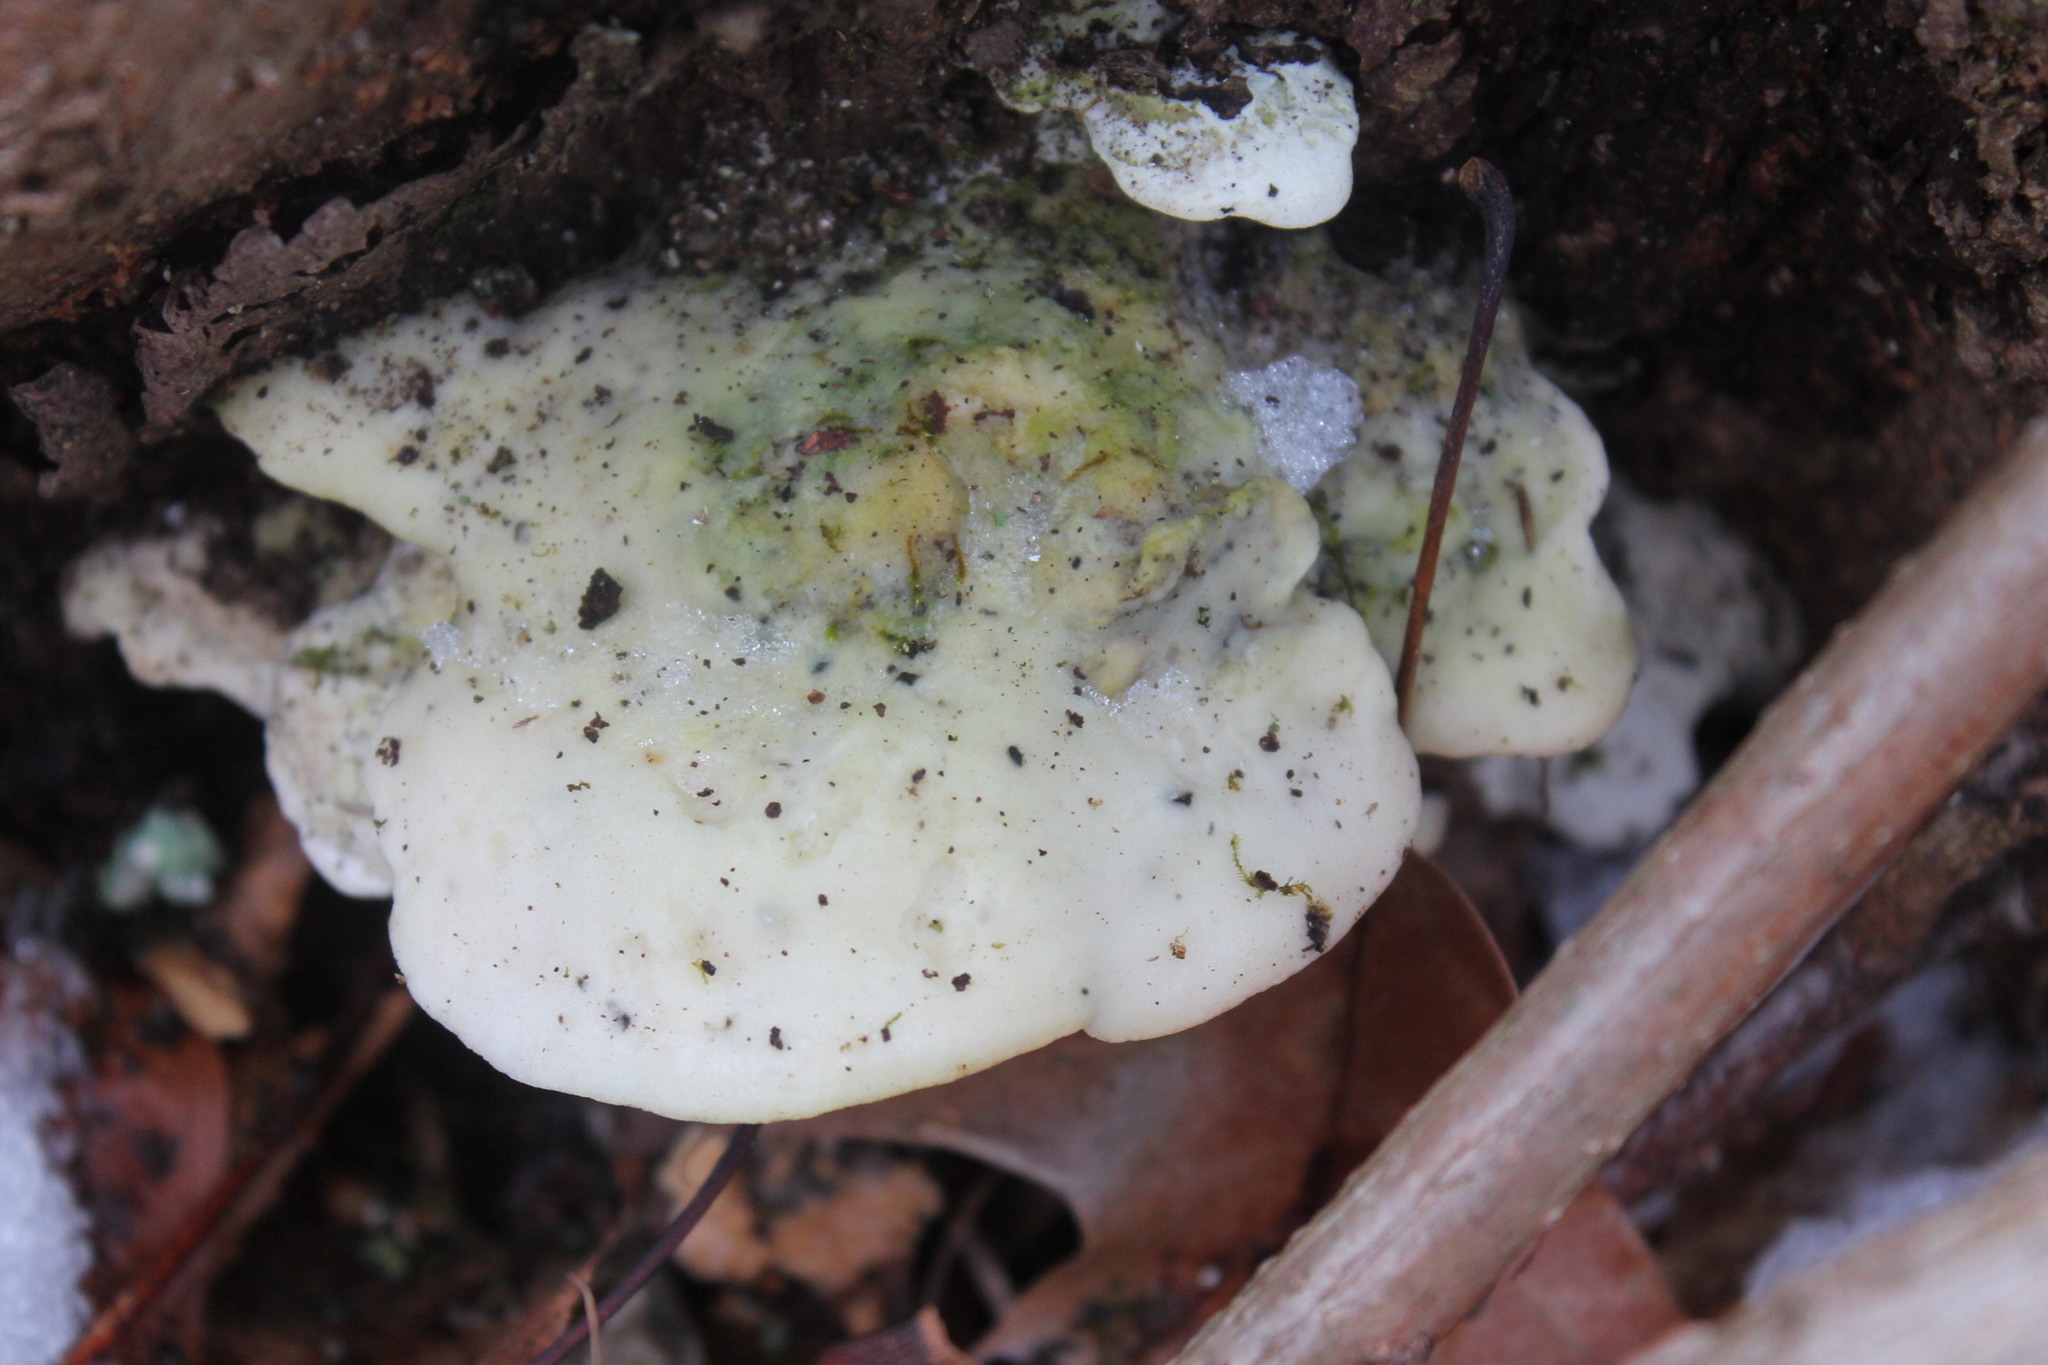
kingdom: Fungi
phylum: Basidiomycota
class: Agaricomycetes
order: Polyporales
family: Incrustoporiaceae
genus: Tyromyces
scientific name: Tyromyces chioneus
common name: White cheese polypore
